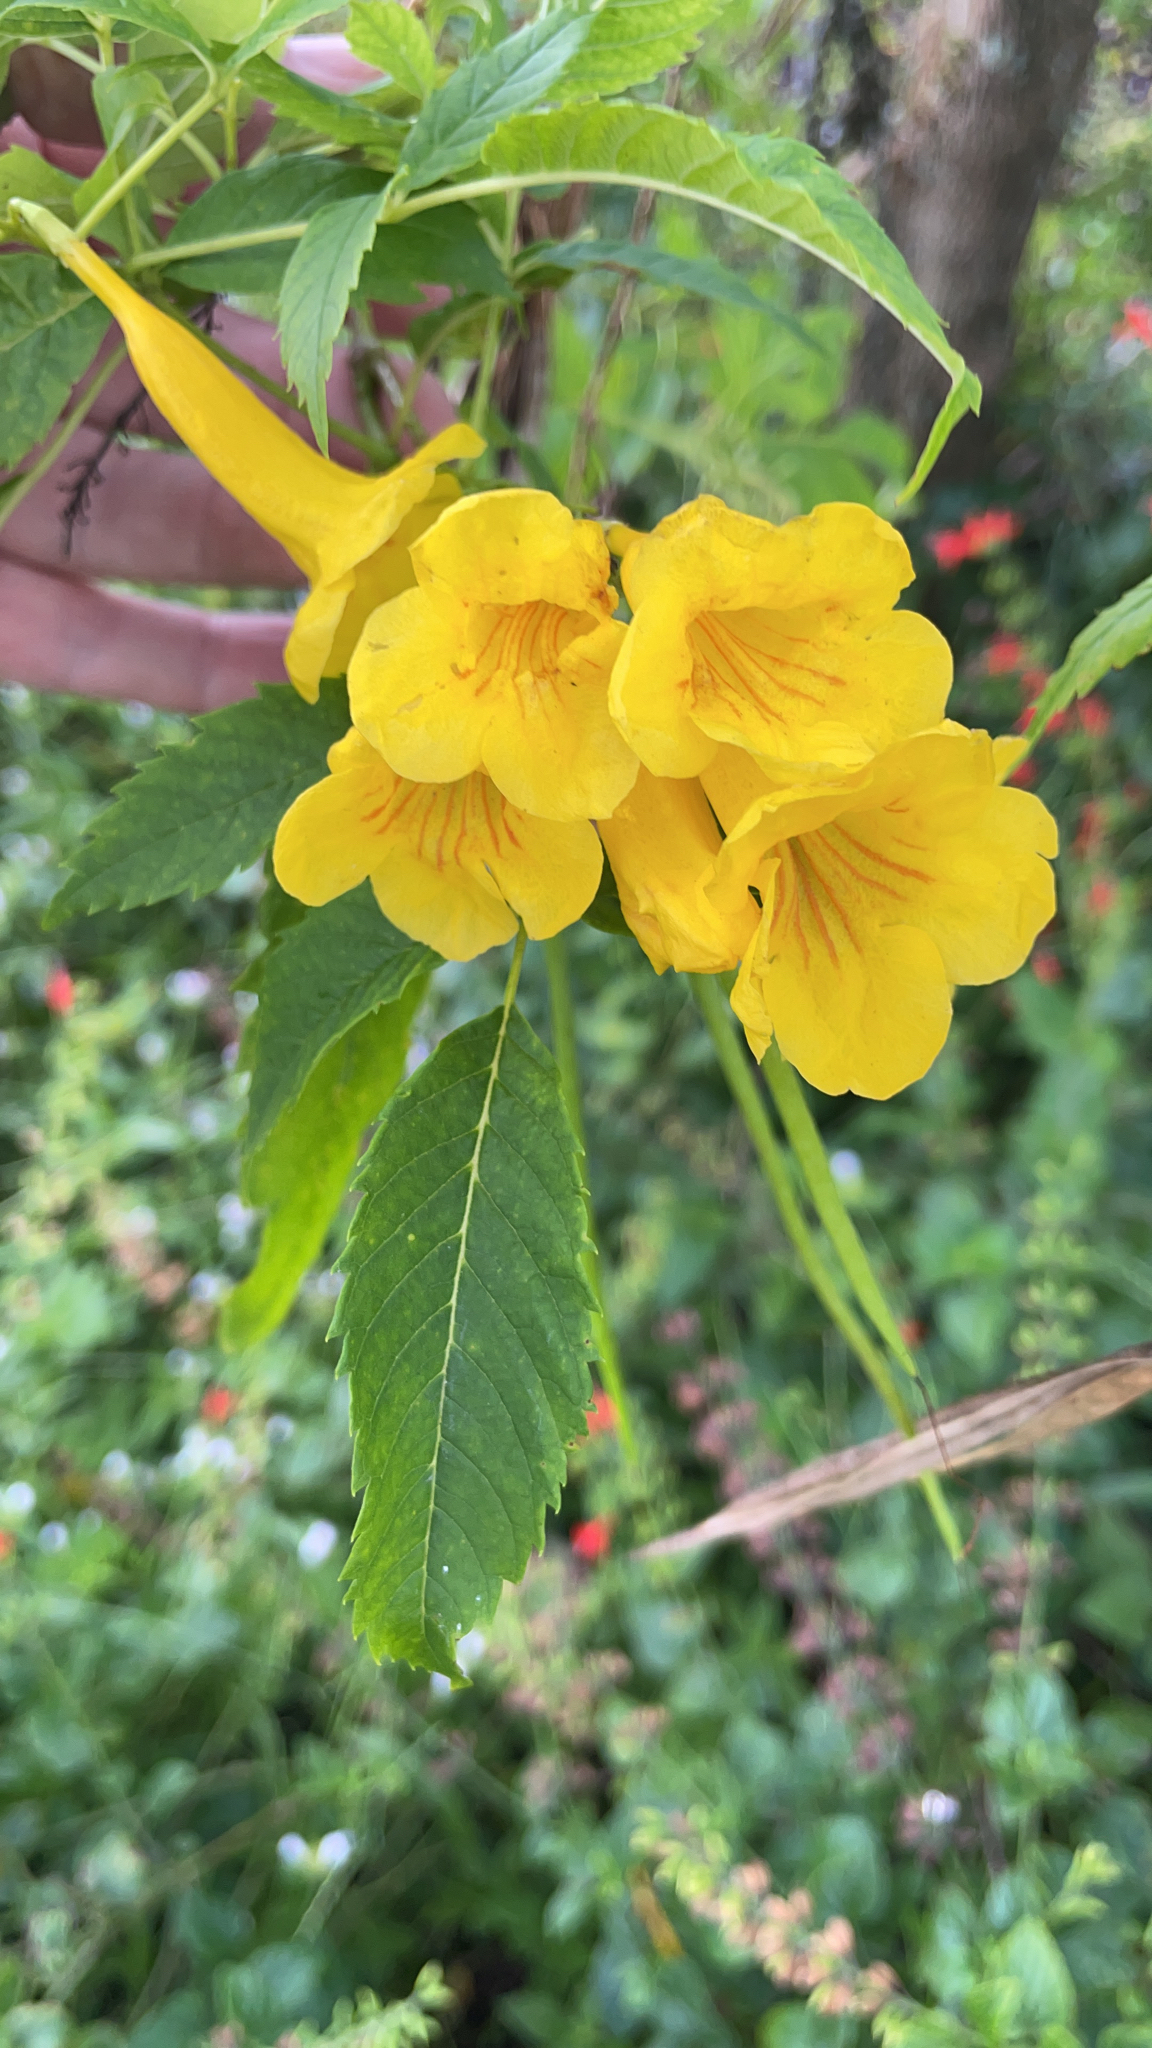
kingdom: Plantae
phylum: Tracheophyta
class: Magnoliopsida
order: Lamiales
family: Bignoniaceae
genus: Tecoma
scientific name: Tecoma stans
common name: Yellow trumpetbush
